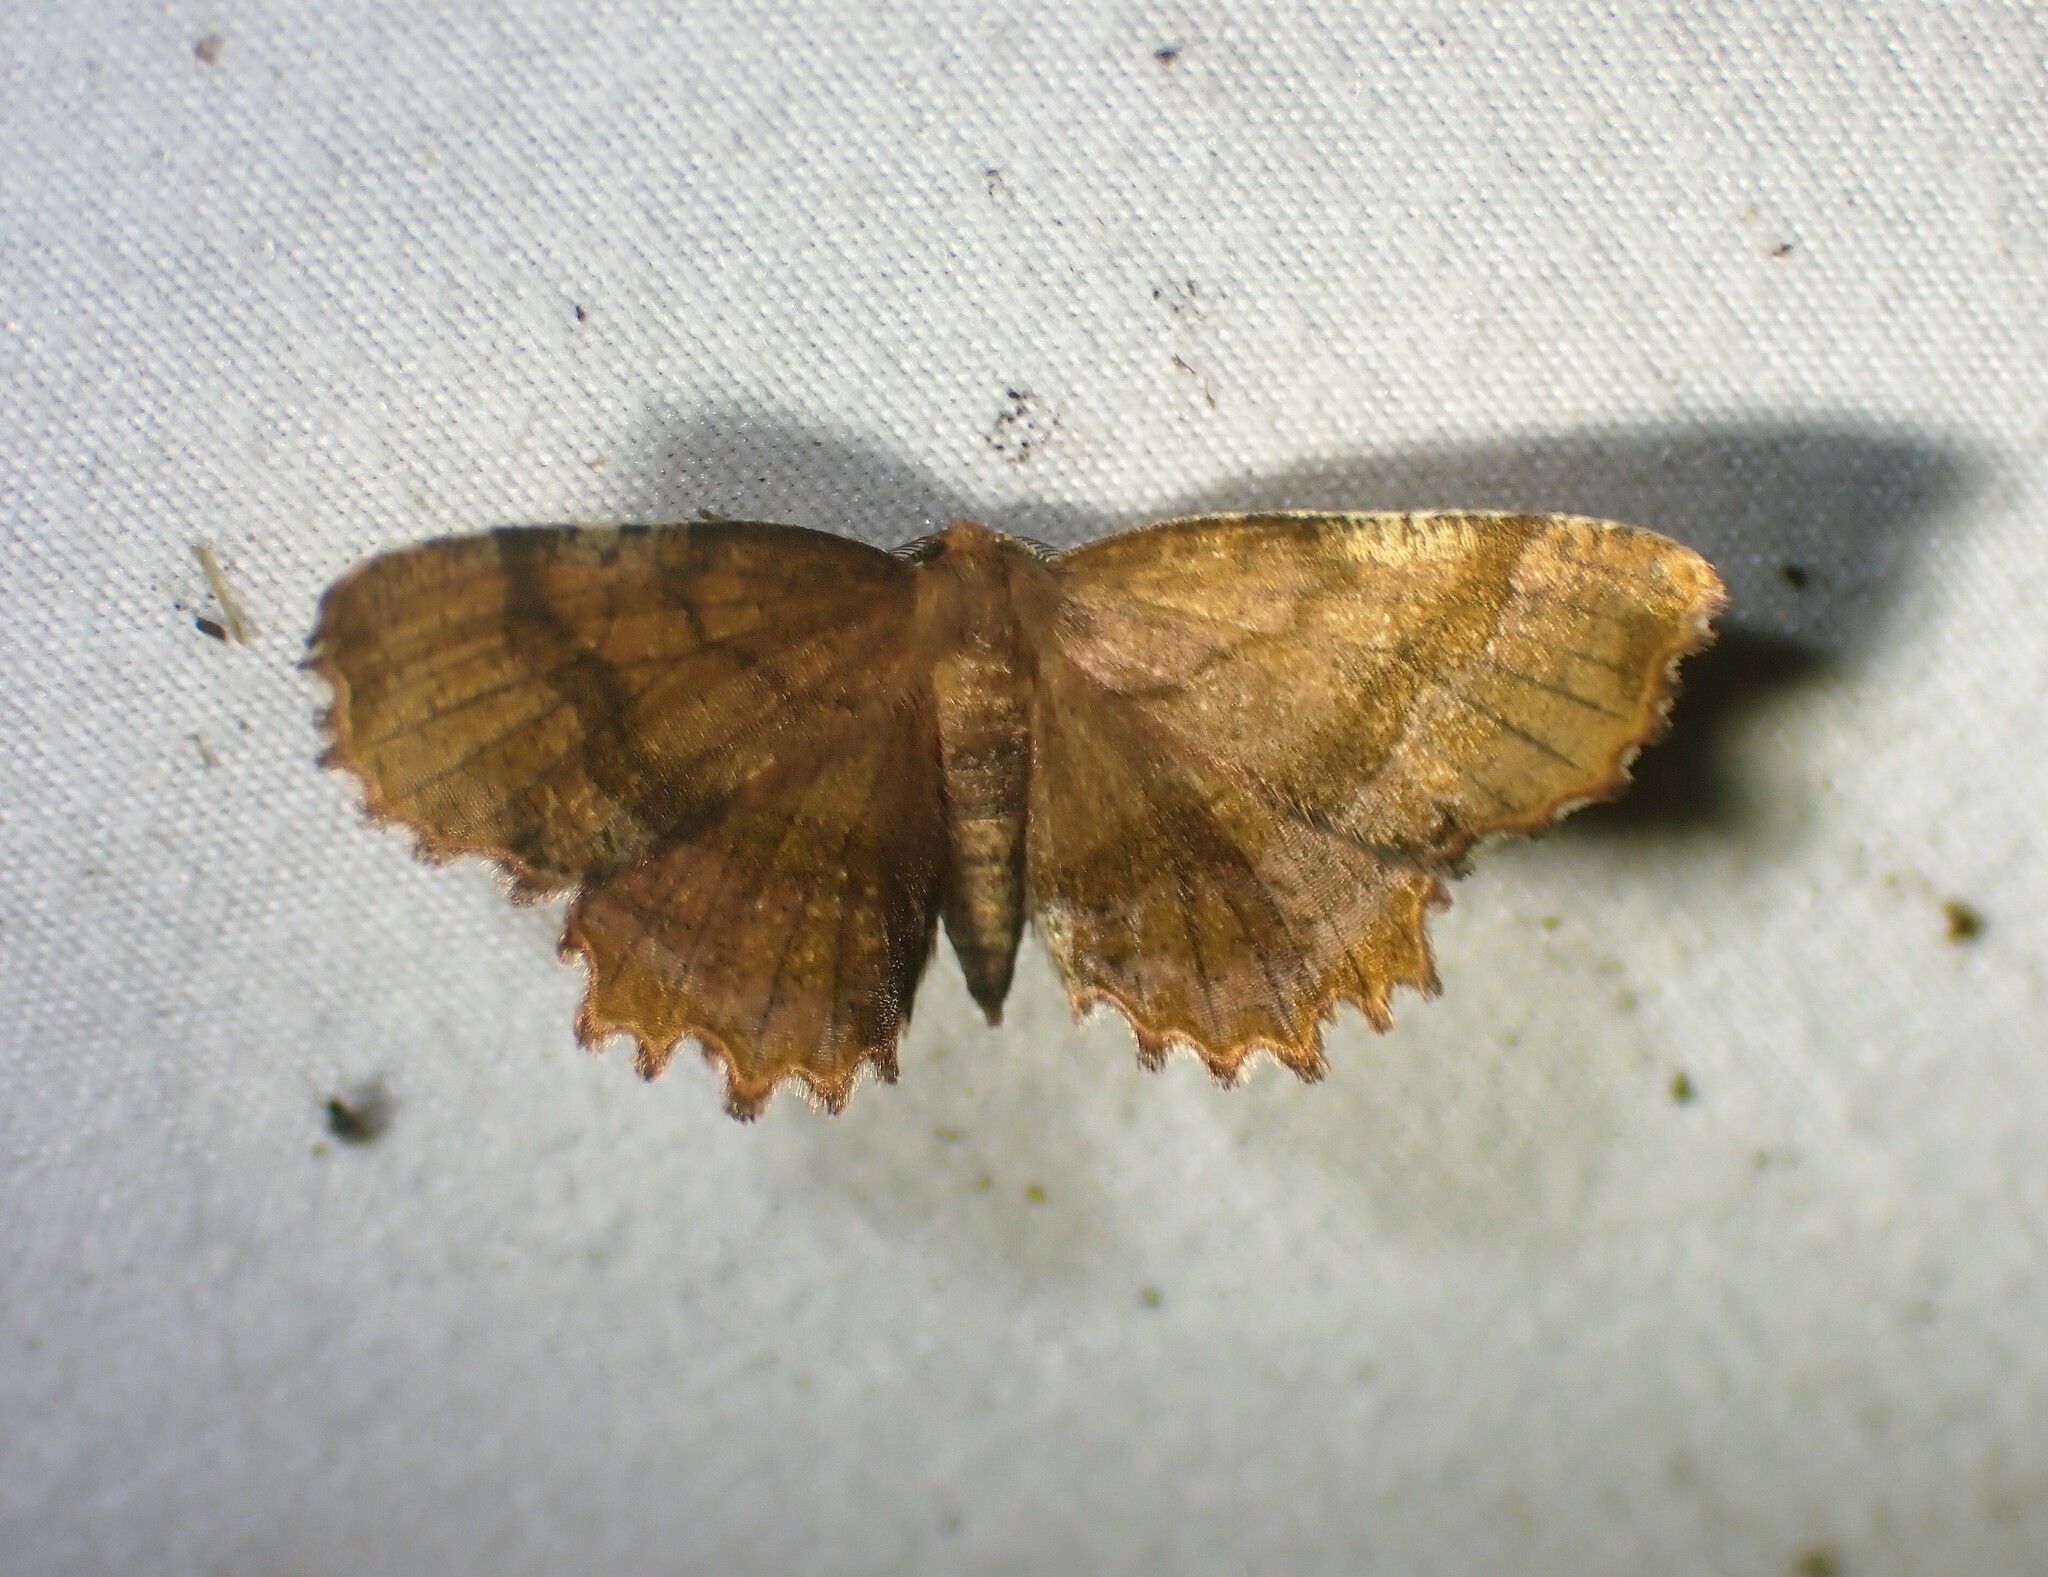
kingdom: Animalia
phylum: Arthropoda
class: Insecta
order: Lepidoptera
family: Geometridae
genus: Cepphis
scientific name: Cepphis armataria
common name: Scallop moth
